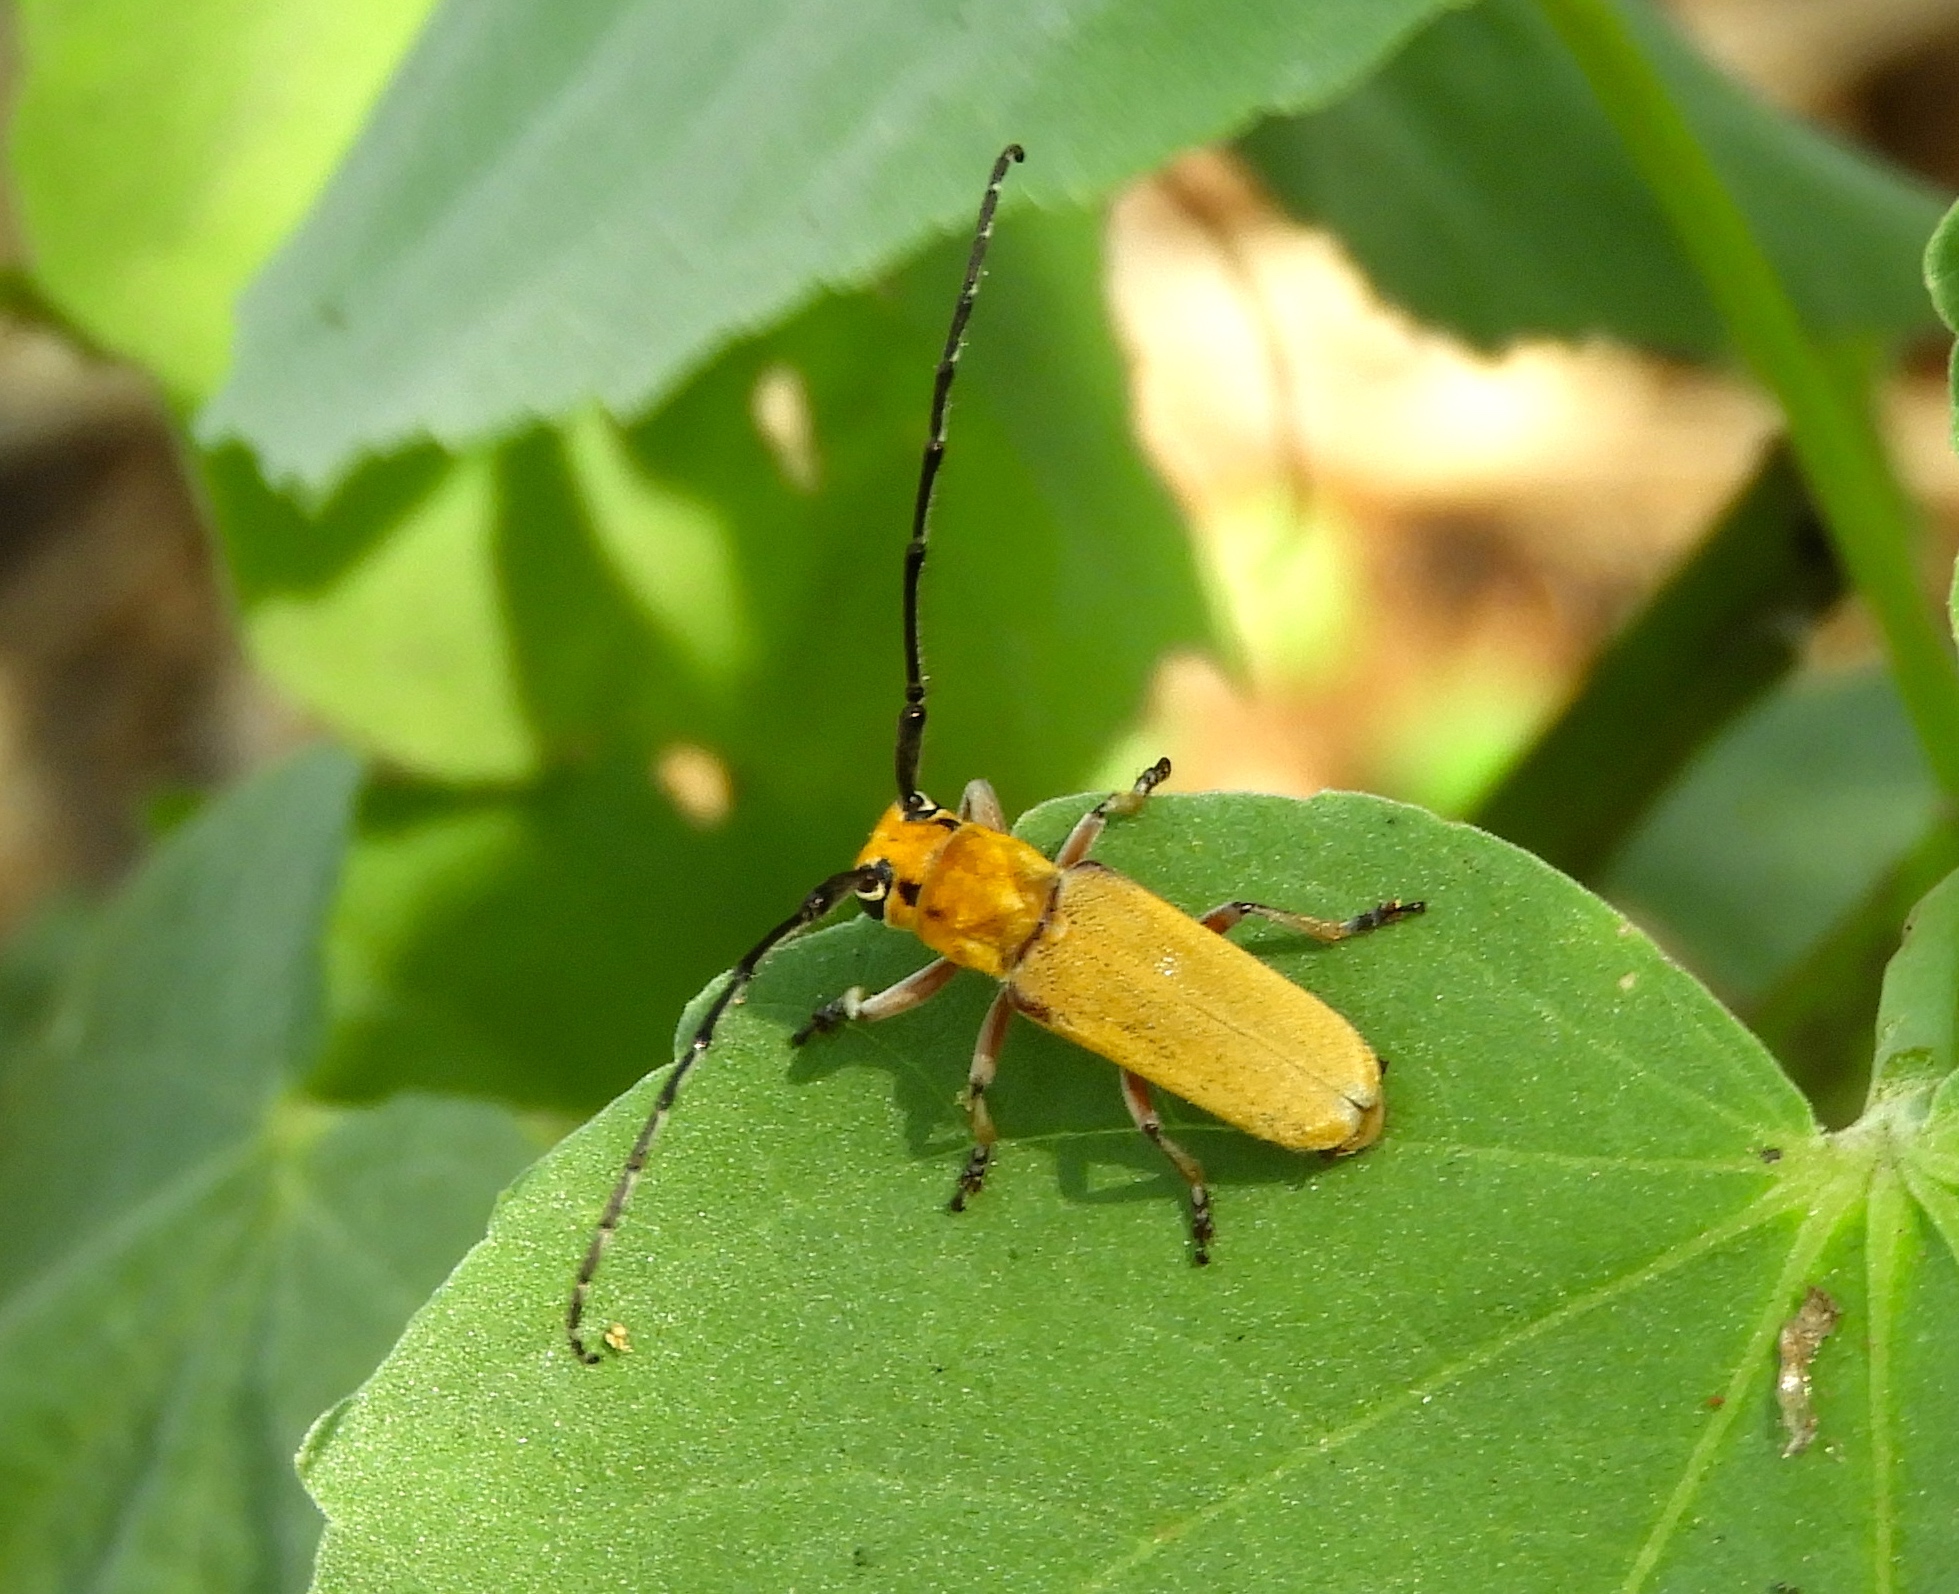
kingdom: Animalia
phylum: Arthropoda
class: Insecta
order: Coleoptera
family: Cerambycidae
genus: Essostrutha
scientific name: Essostrutha laeta
